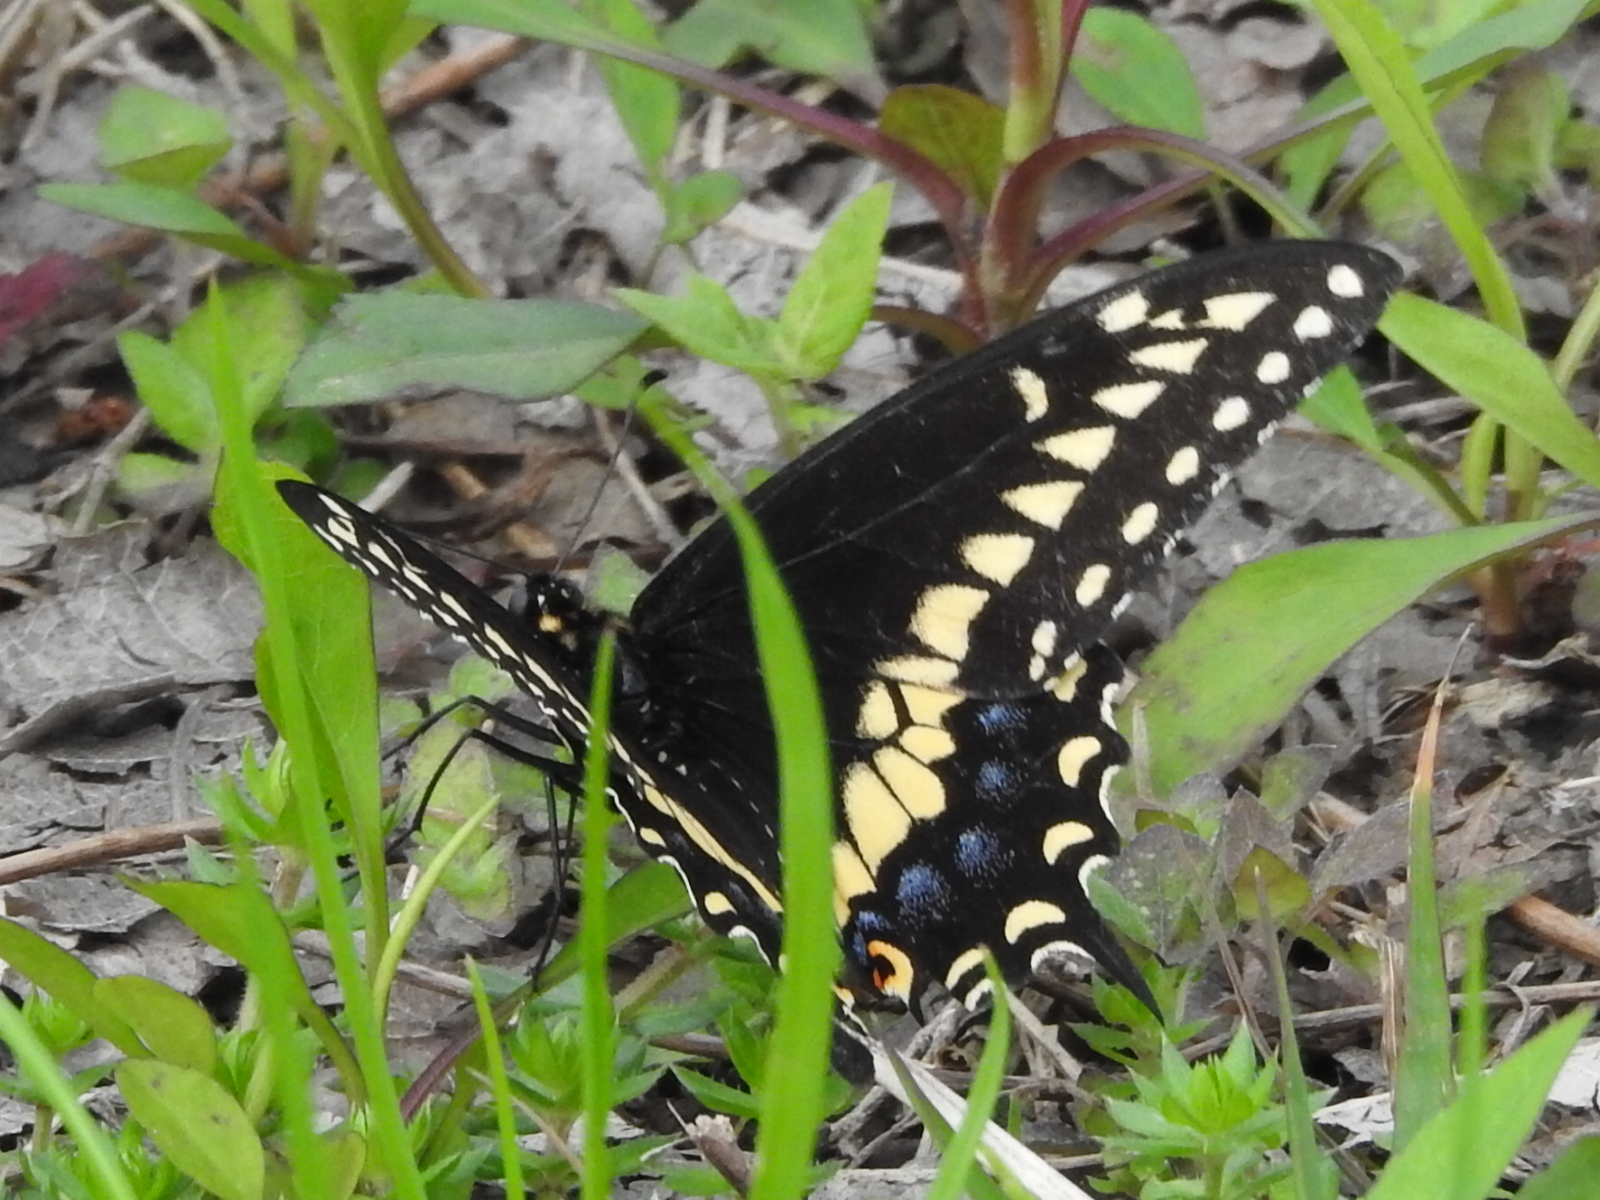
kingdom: Animalia
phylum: Arthropoda
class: Insecta
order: Lepidoptera
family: Papilionidae
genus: Papilio
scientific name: Papilio polyxenes
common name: Black swallowtail
